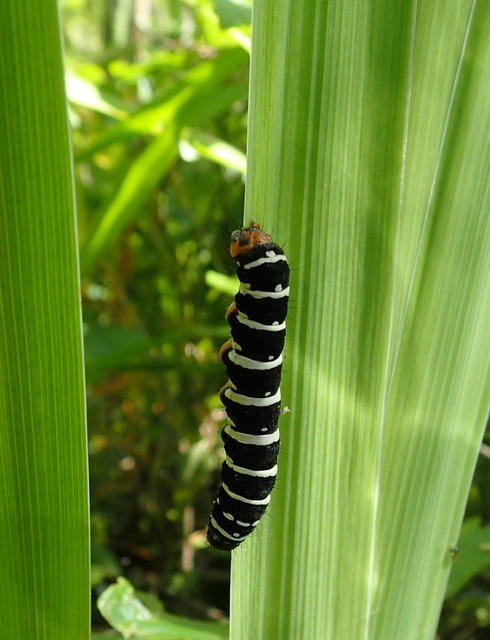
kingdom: Animalia
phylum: Arthropoda
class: Insecta
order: Lepidoptera
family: Noctuidae
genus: Xanthopastis
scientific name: Xanthopastis regnatrix
